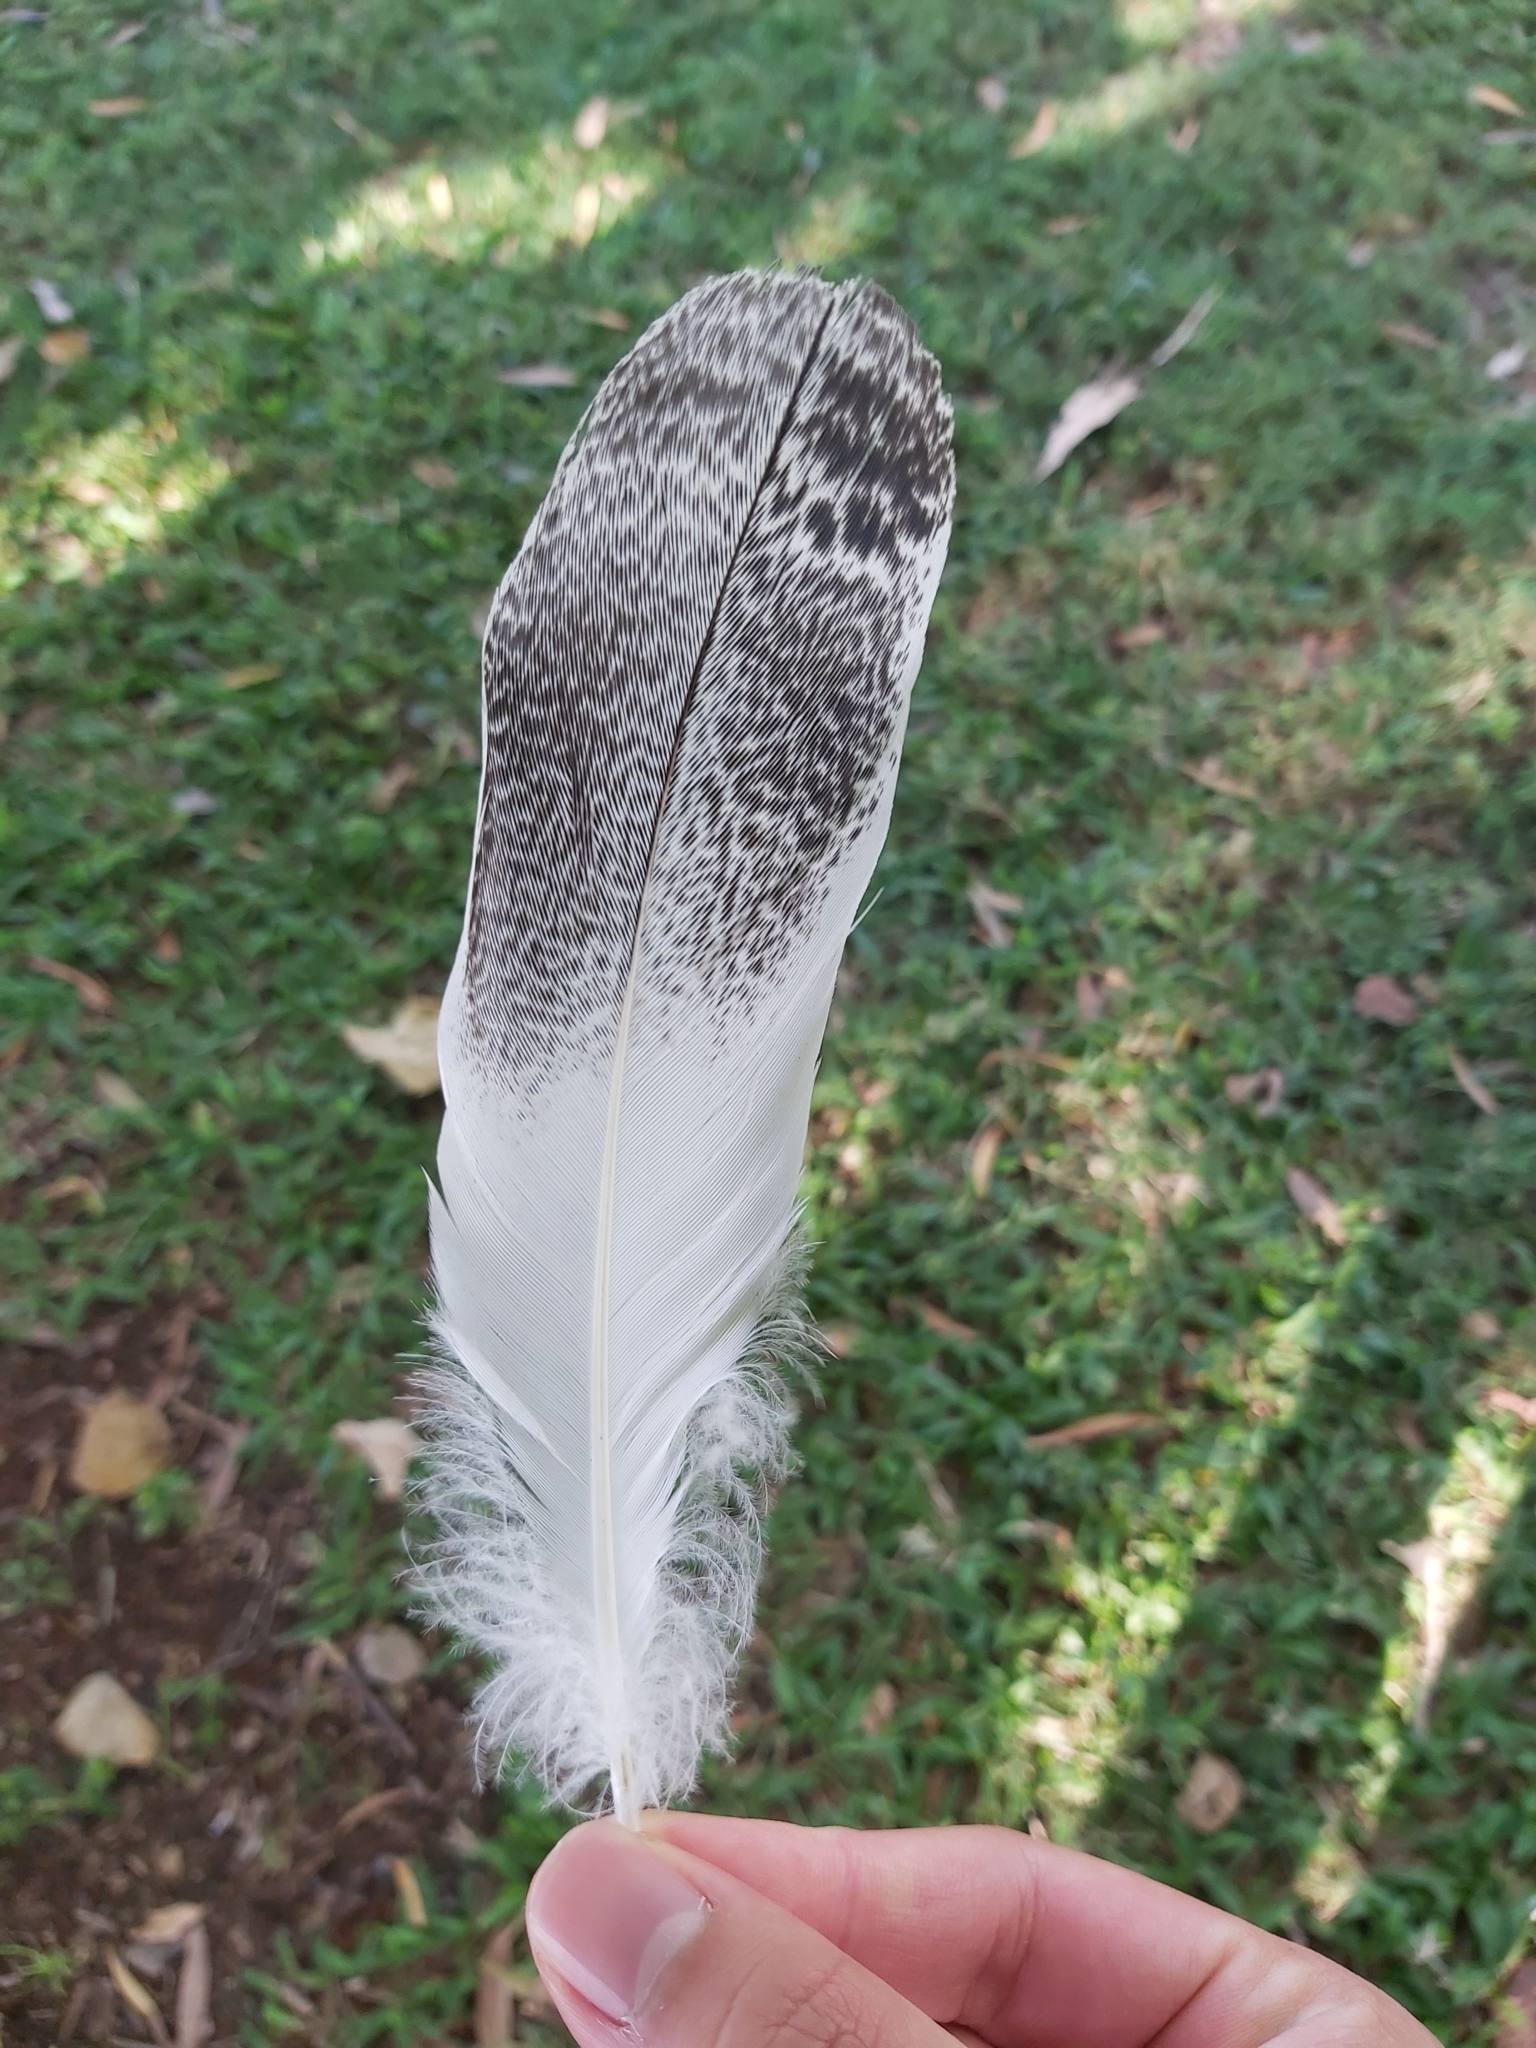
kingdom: Animalia
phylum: Chordata
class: Aves
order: Pelecaniformes
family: Threskiornithidae
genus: Threskiornis
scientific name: Threskiornis molucca
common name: Australian white ibis
